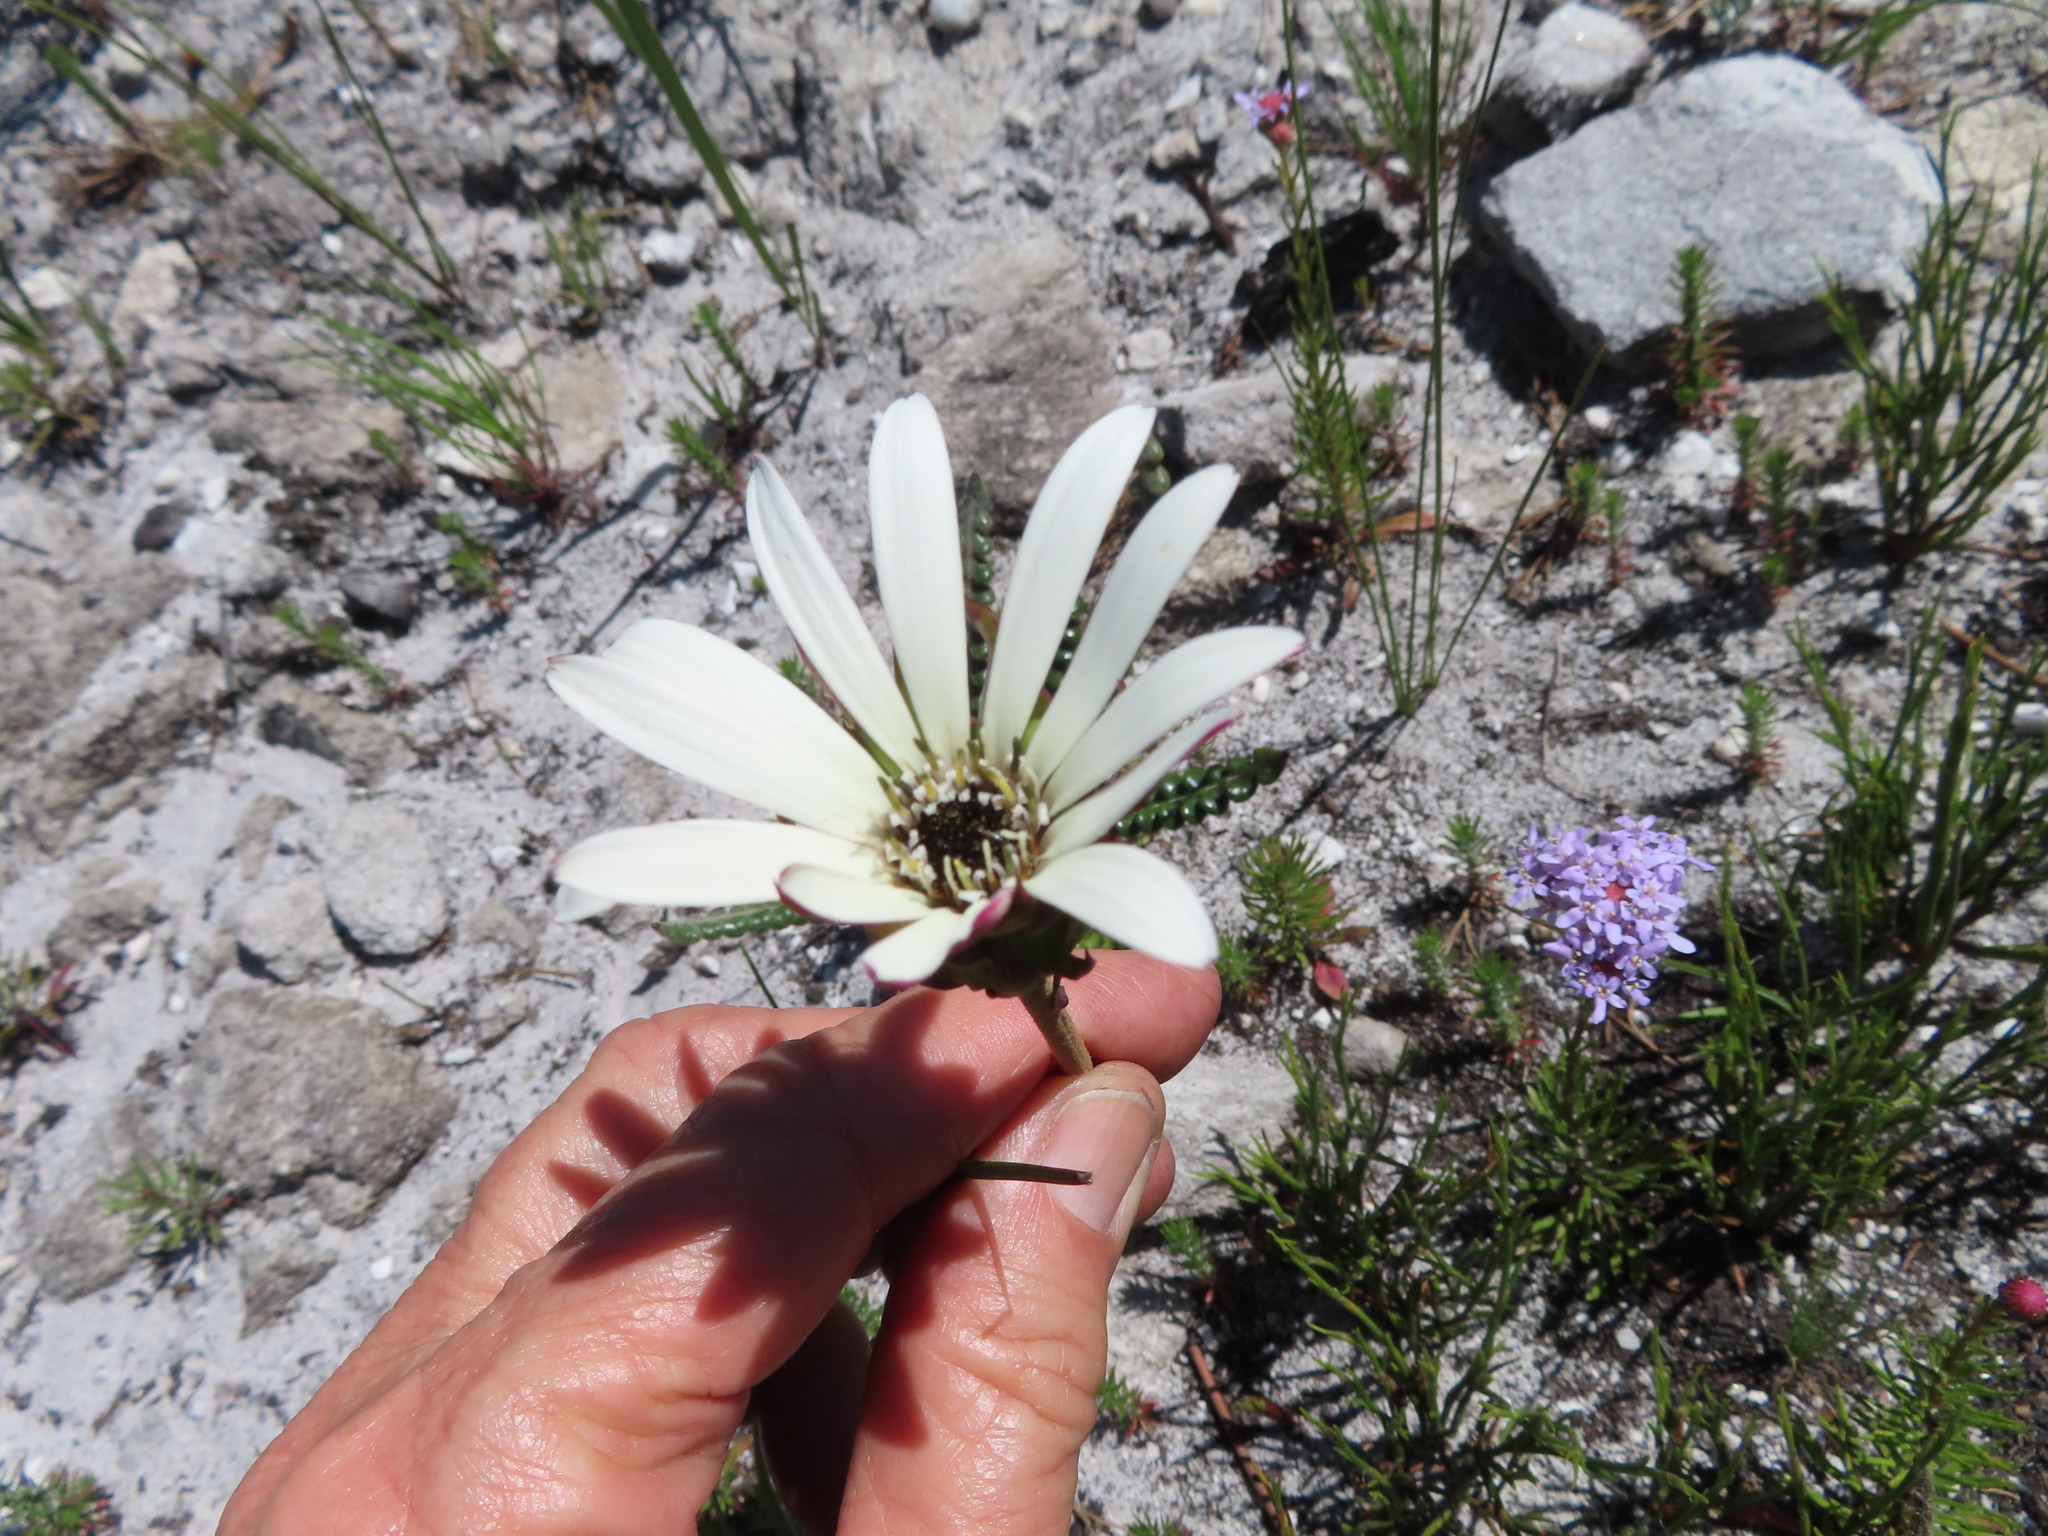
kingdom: Plantae
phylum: Tracheophyta
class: Magnoliopsida
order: Asterales
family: Asteraceae
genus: Gerbera
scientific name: Gerbera linnaei
